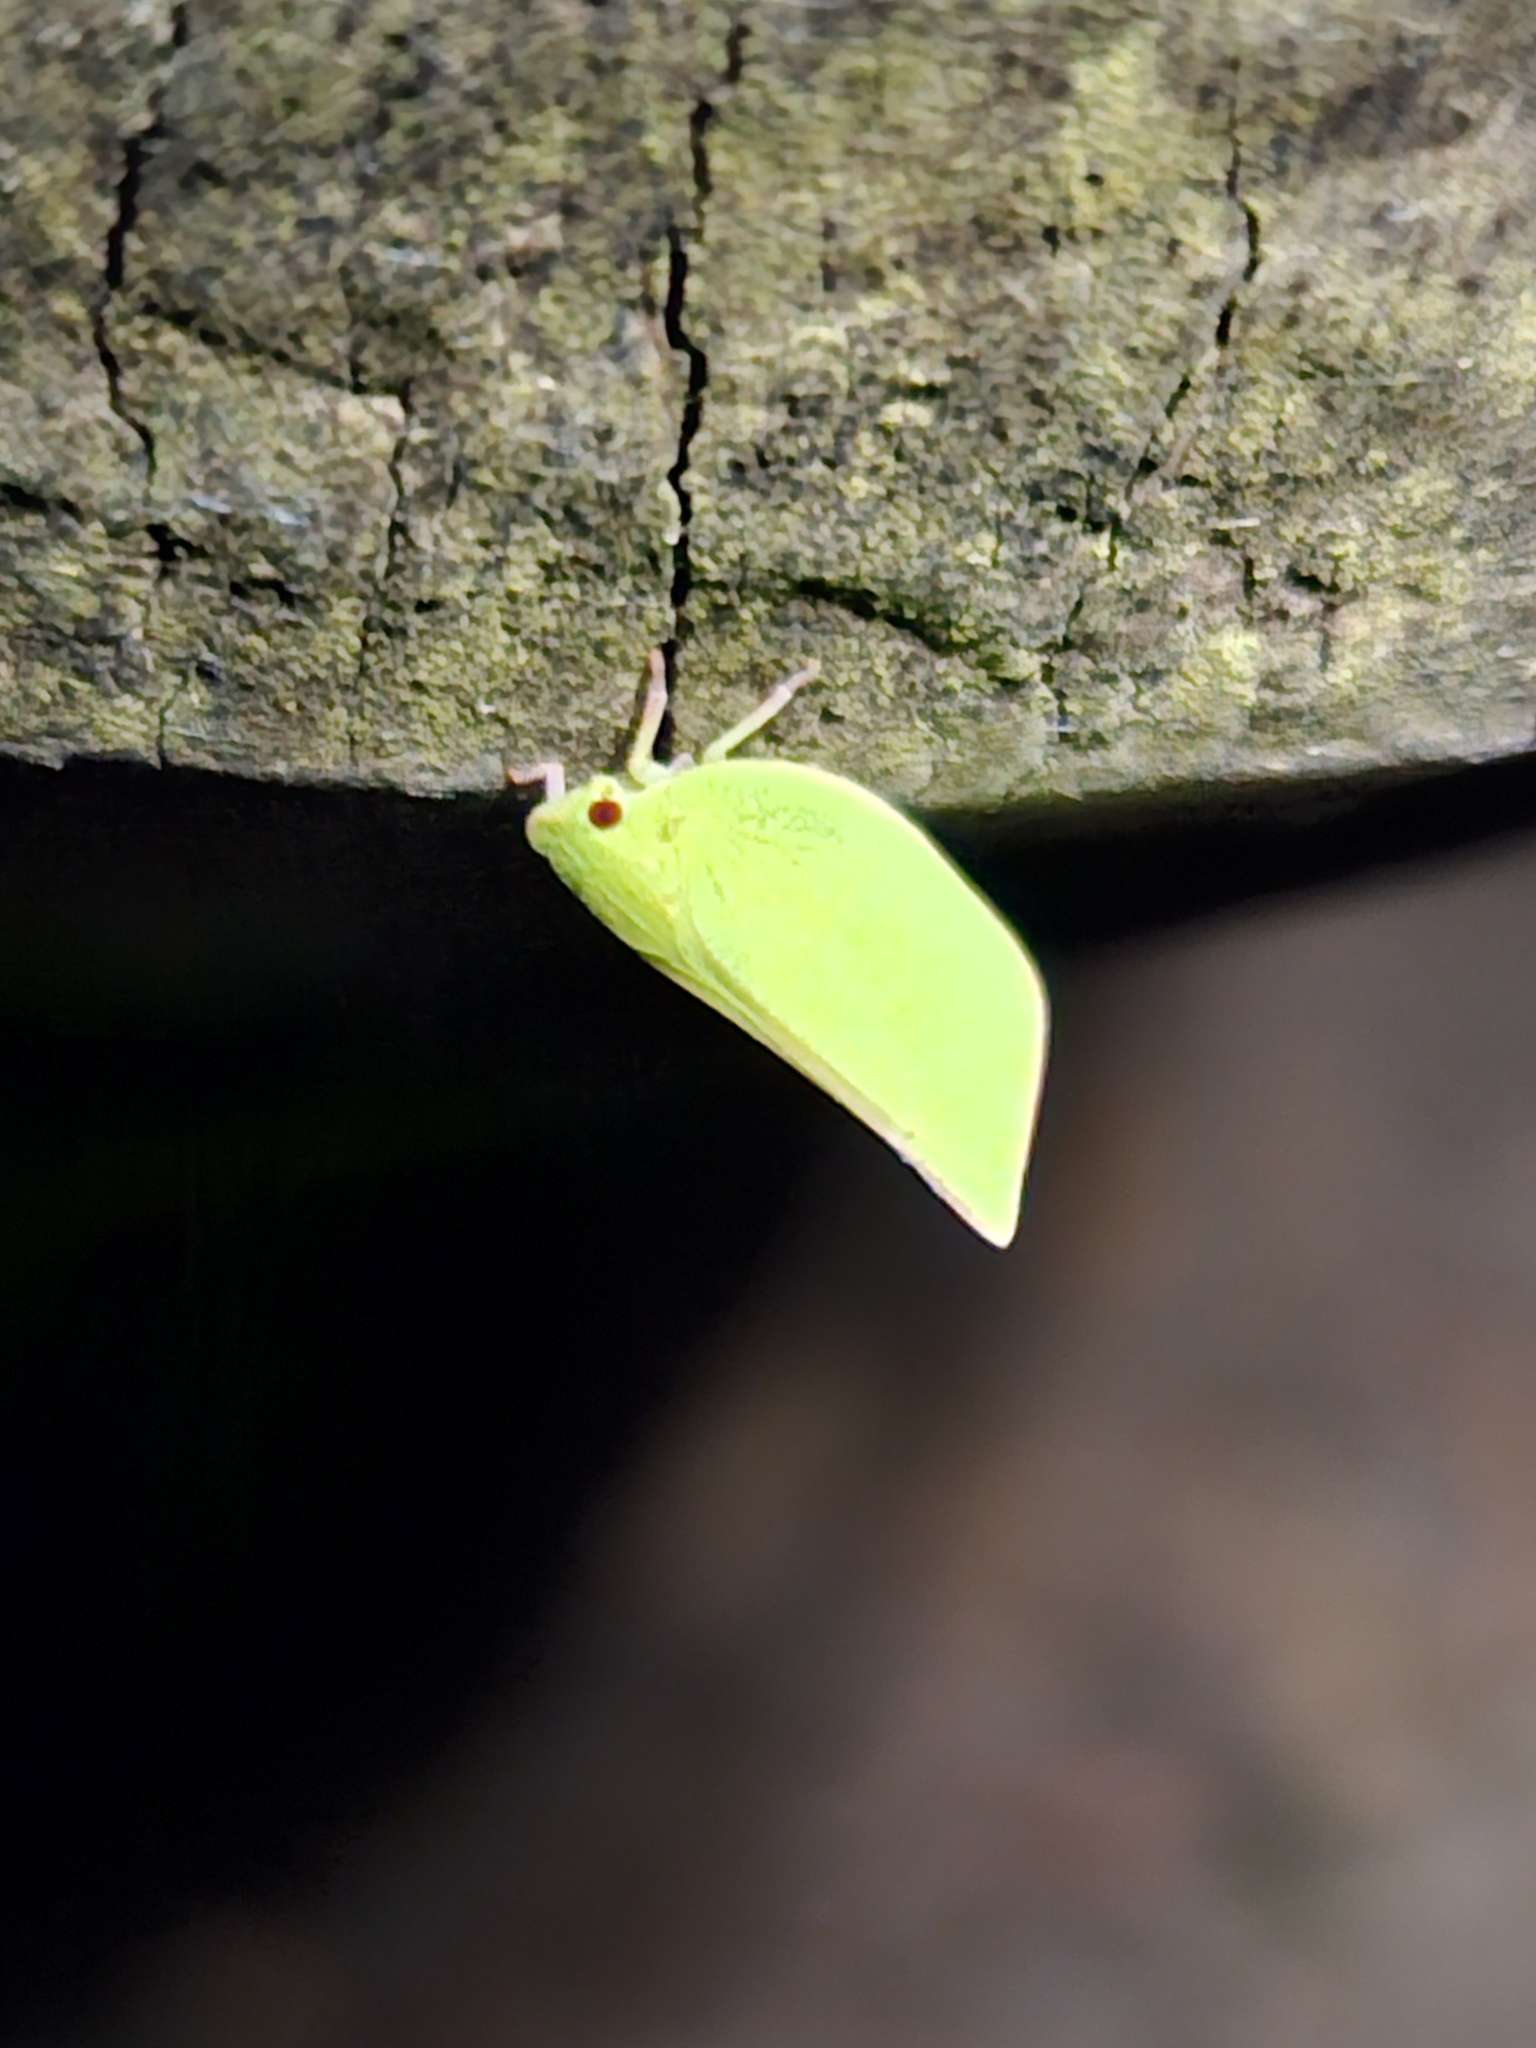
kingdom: Animalia
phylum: Arthropoda
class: Insecta
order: Hemiptera
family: Flatidae
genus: Siphanta
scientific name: Siphanta acuta
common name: Torpedo bug
